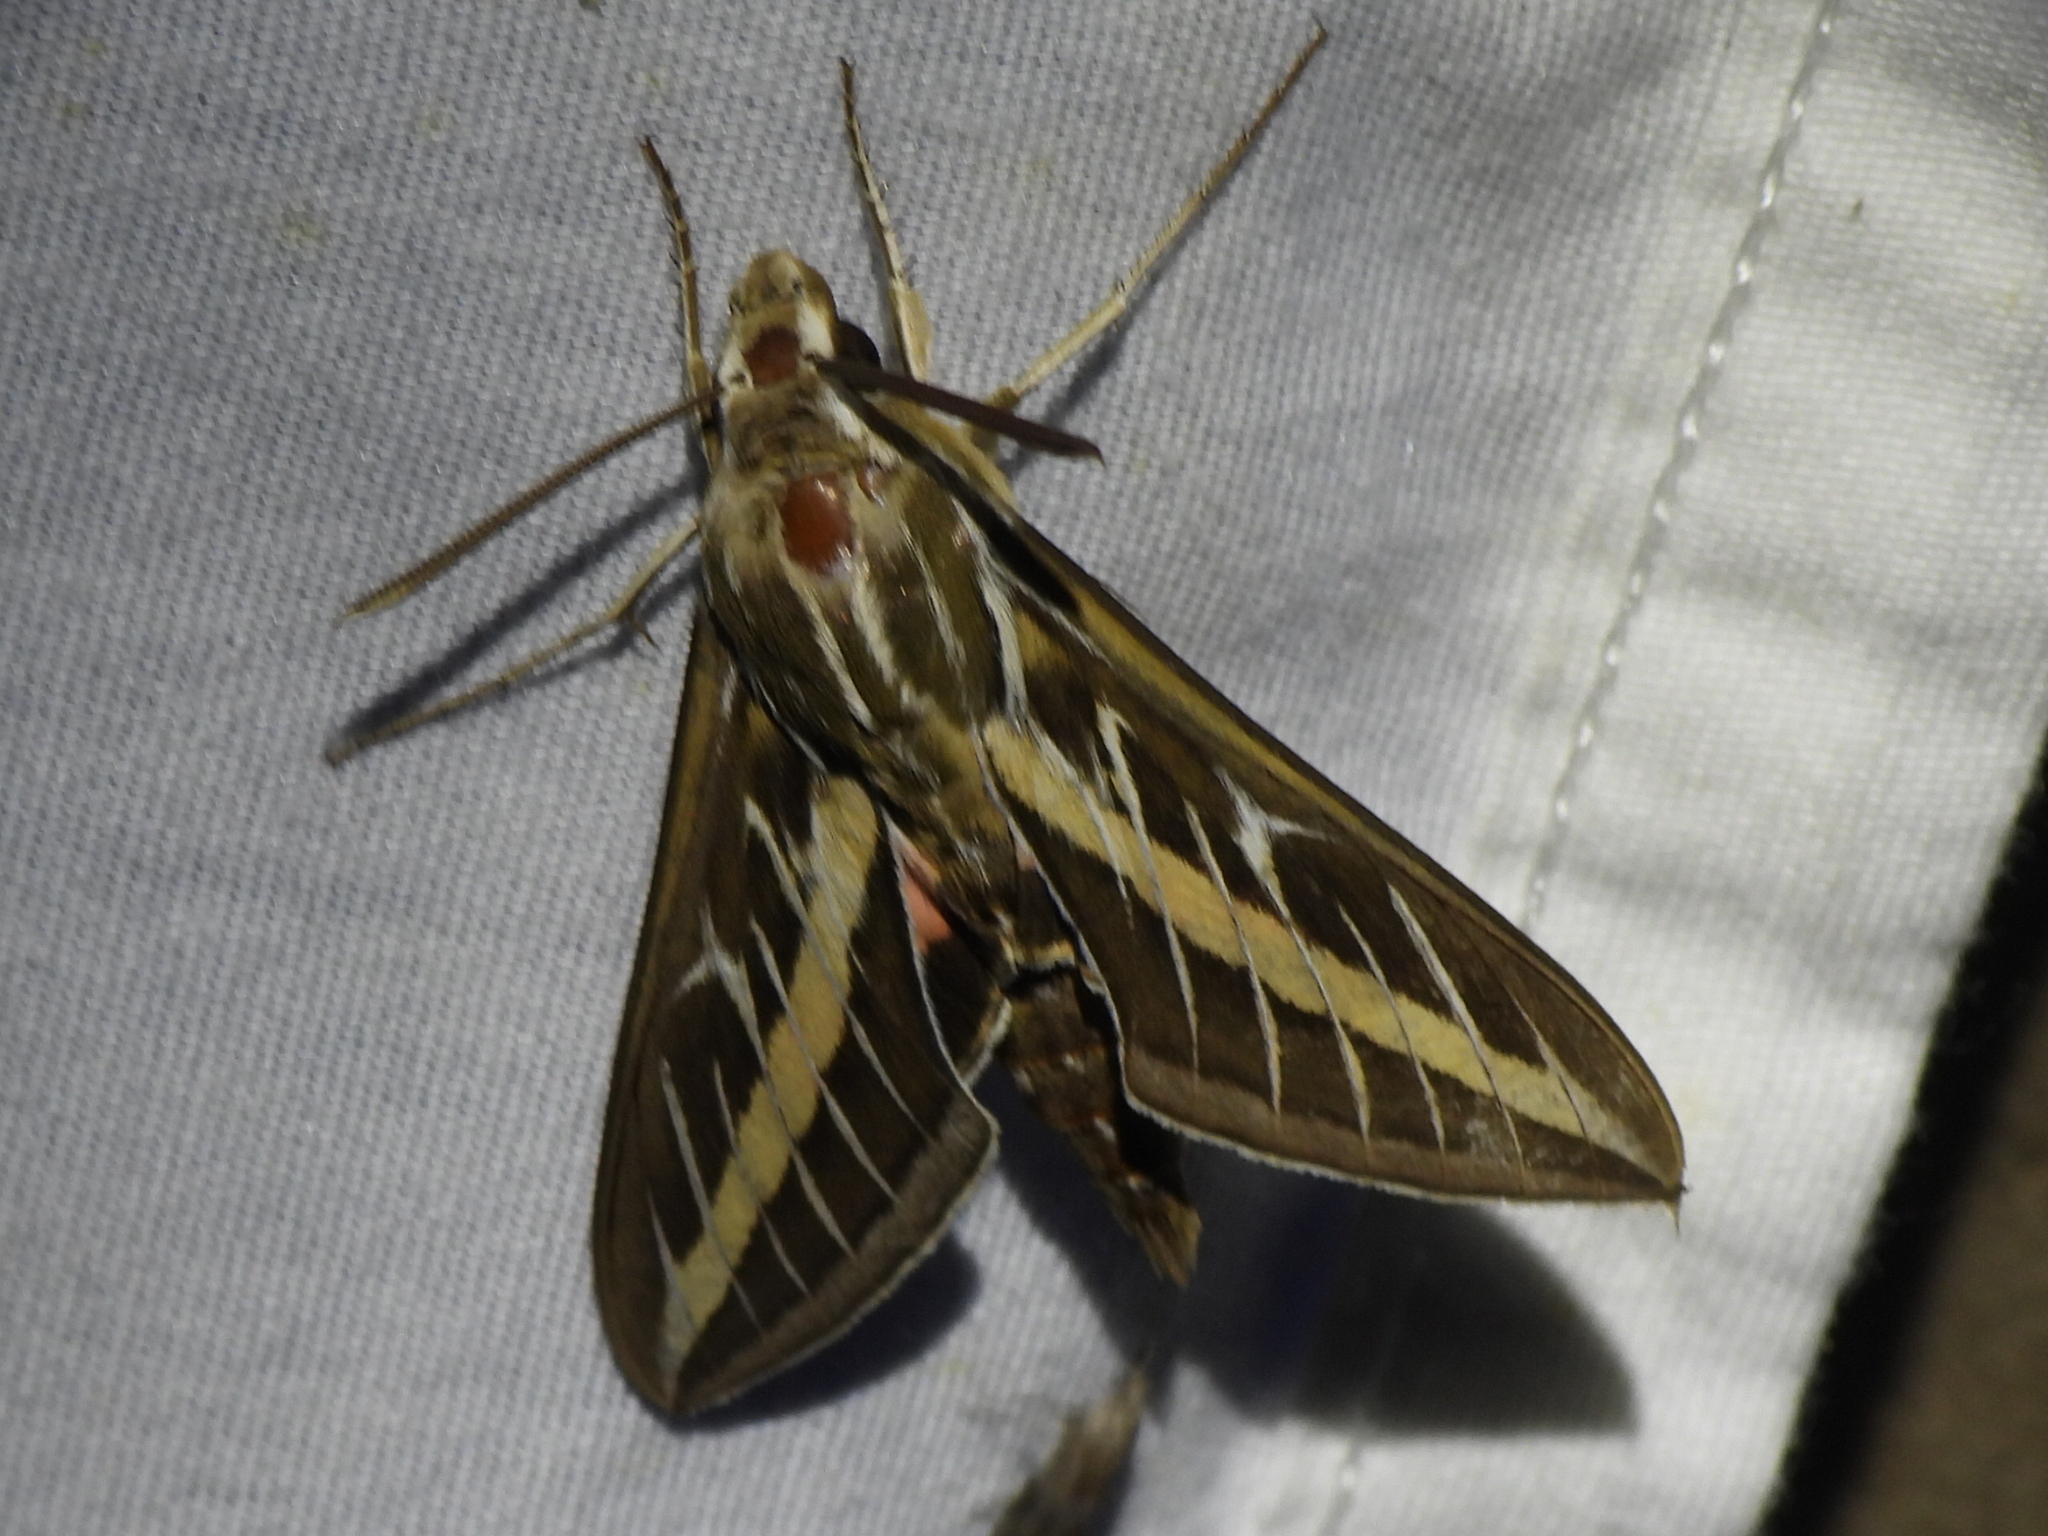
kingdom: Animalia
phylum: Arthropoda
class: Insecta
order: Lepidoptera
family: Sphingidae
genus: Hyles
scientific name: Hyles lineata
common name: White-lined sphinx
